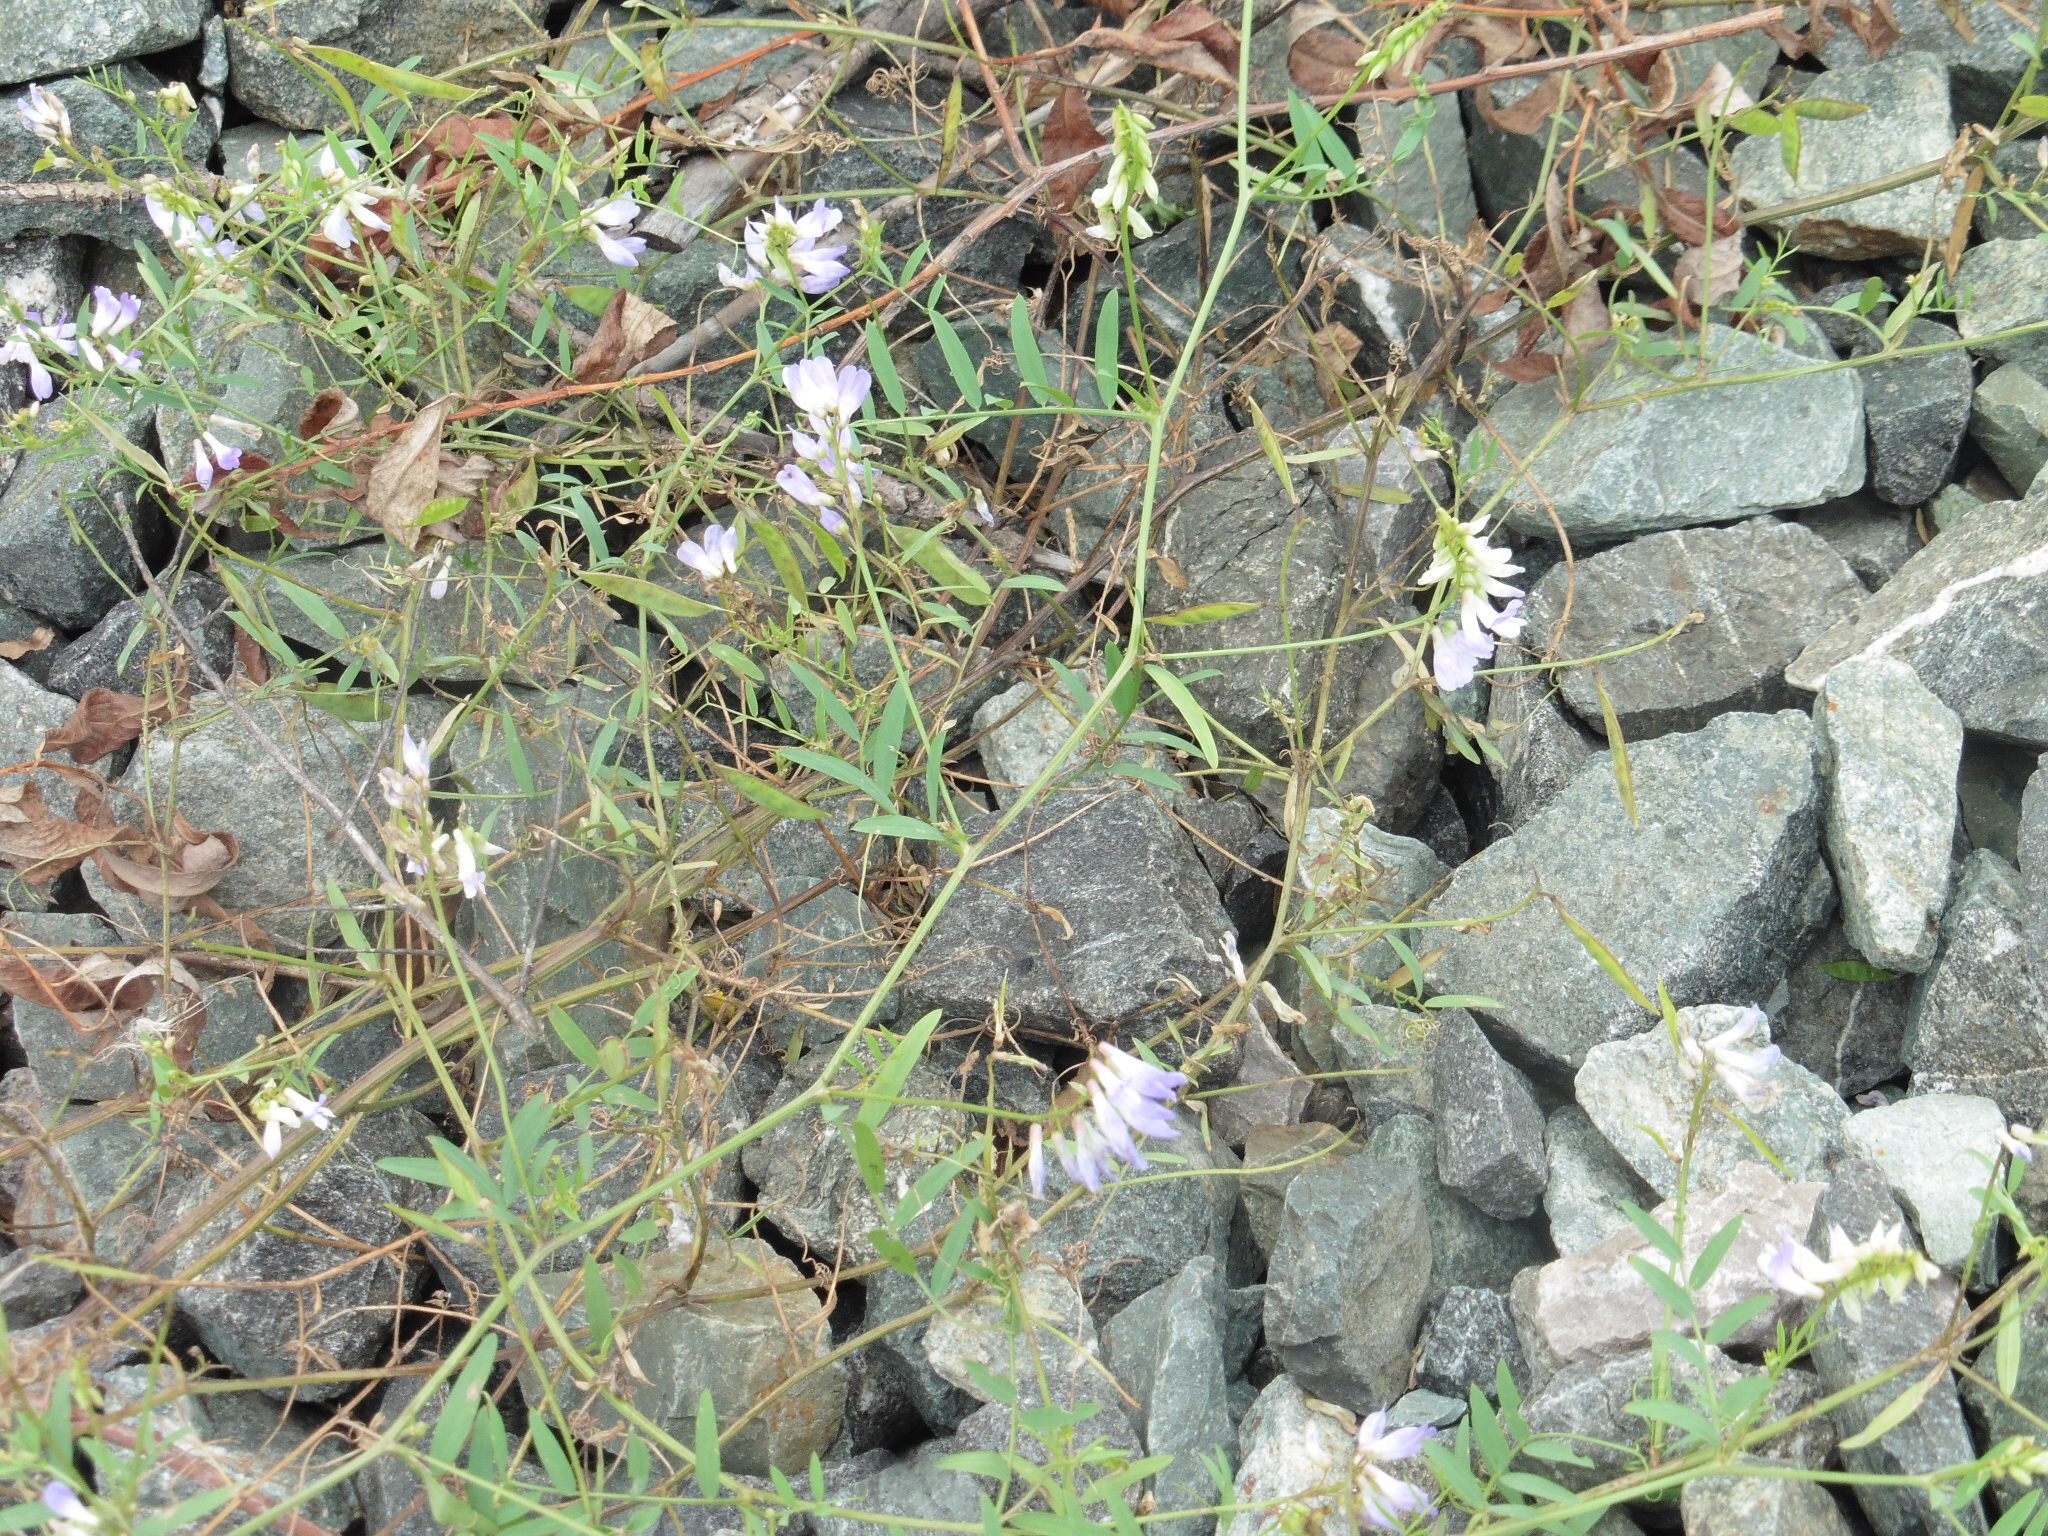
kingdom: Plantae
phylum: Tracheophyta
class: Magnoliopsida
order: Fabales
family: Fabaceae
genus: Vicia
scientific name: Vicia biennis
